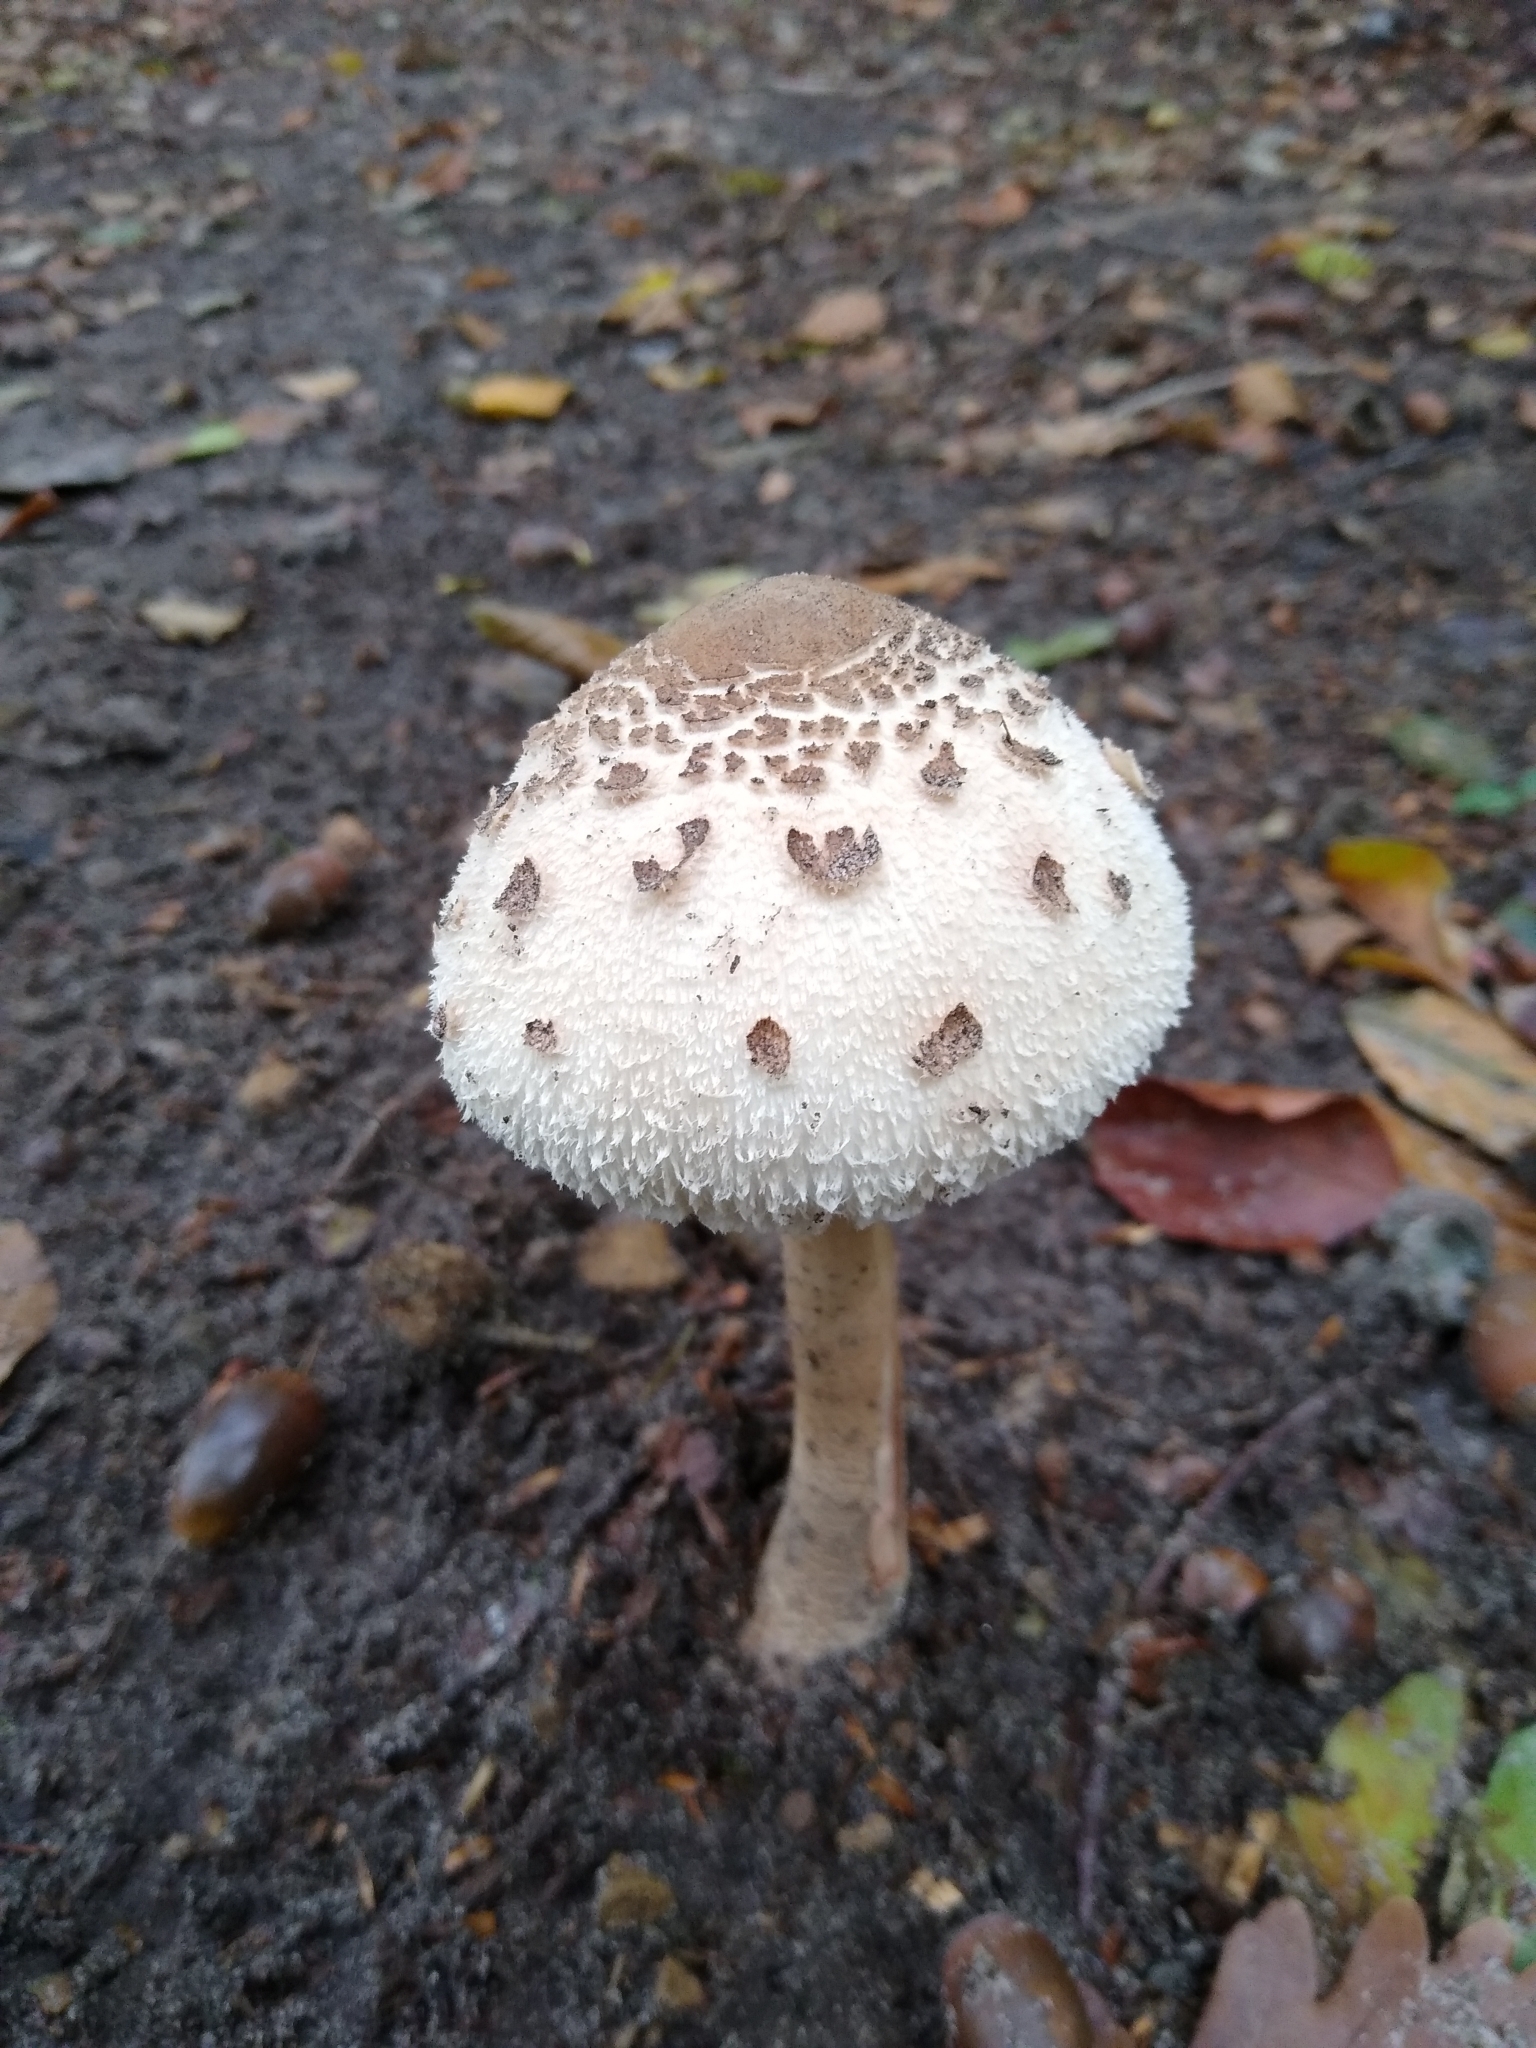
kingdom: Fungi
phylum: Basidiomycota
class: Agaricomycetes
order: Agaricales
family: Agaricaceae
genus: Chlorophyllum
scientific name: Chlorophyllum brunneum
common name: Brown parasol
